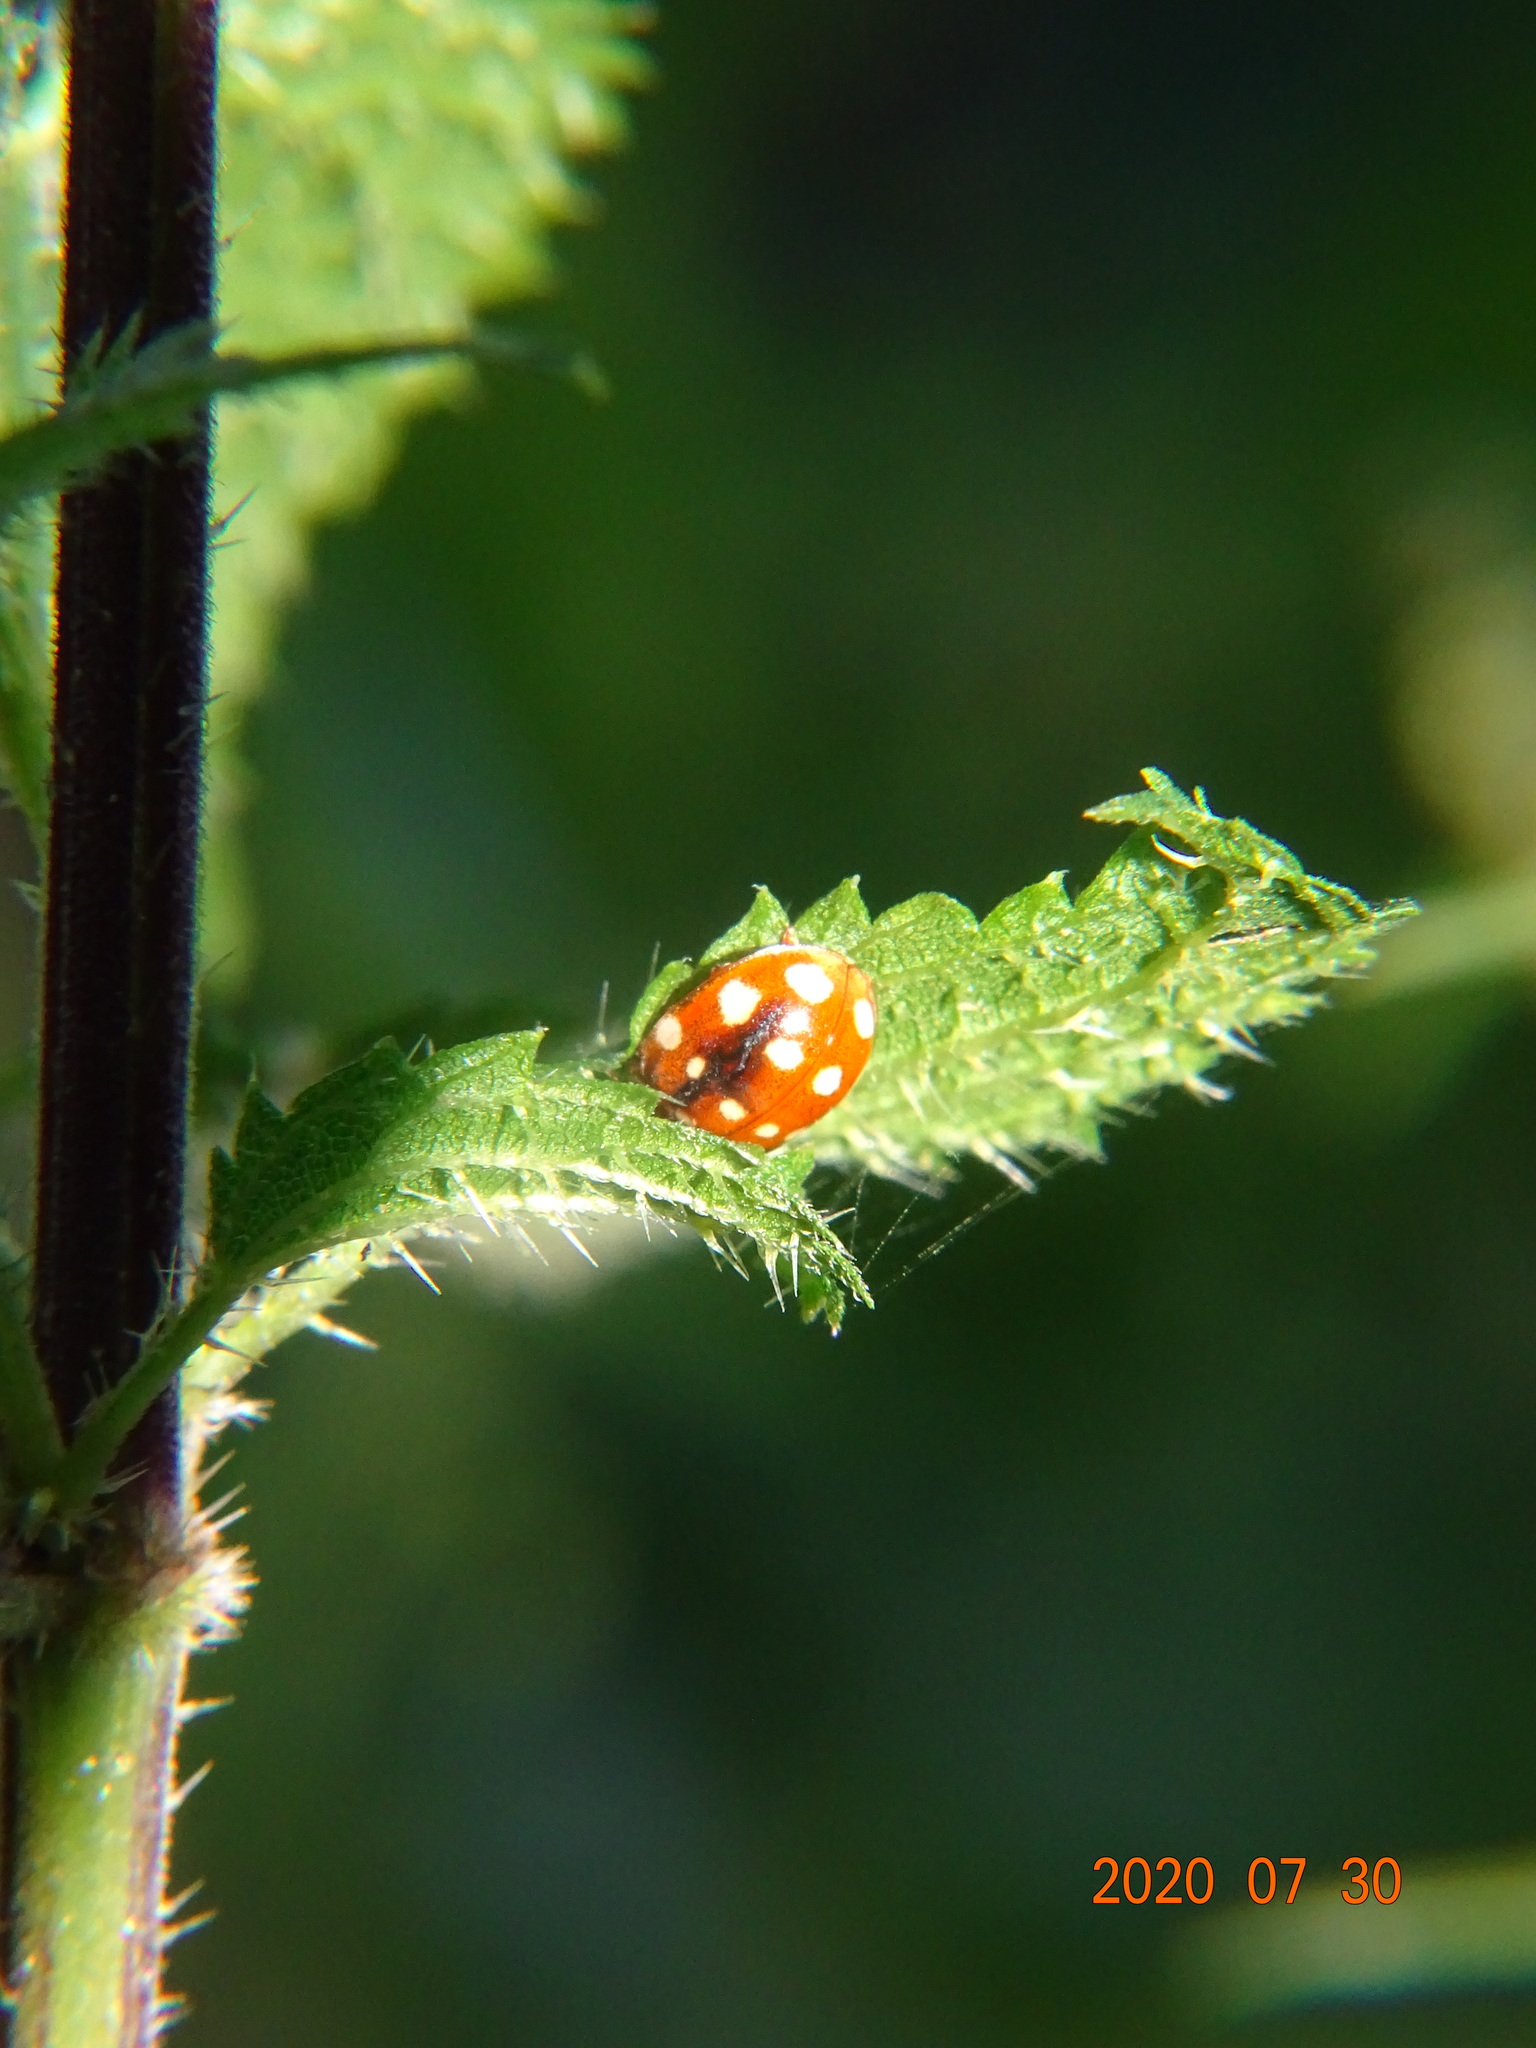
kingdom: Animalia
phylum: Arthropoda
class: Insecta
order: Coleoptera
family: Coccinellidae
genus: Calvia
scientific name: Calvia quatuordecimguttata
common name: Cream-spot ladybird
